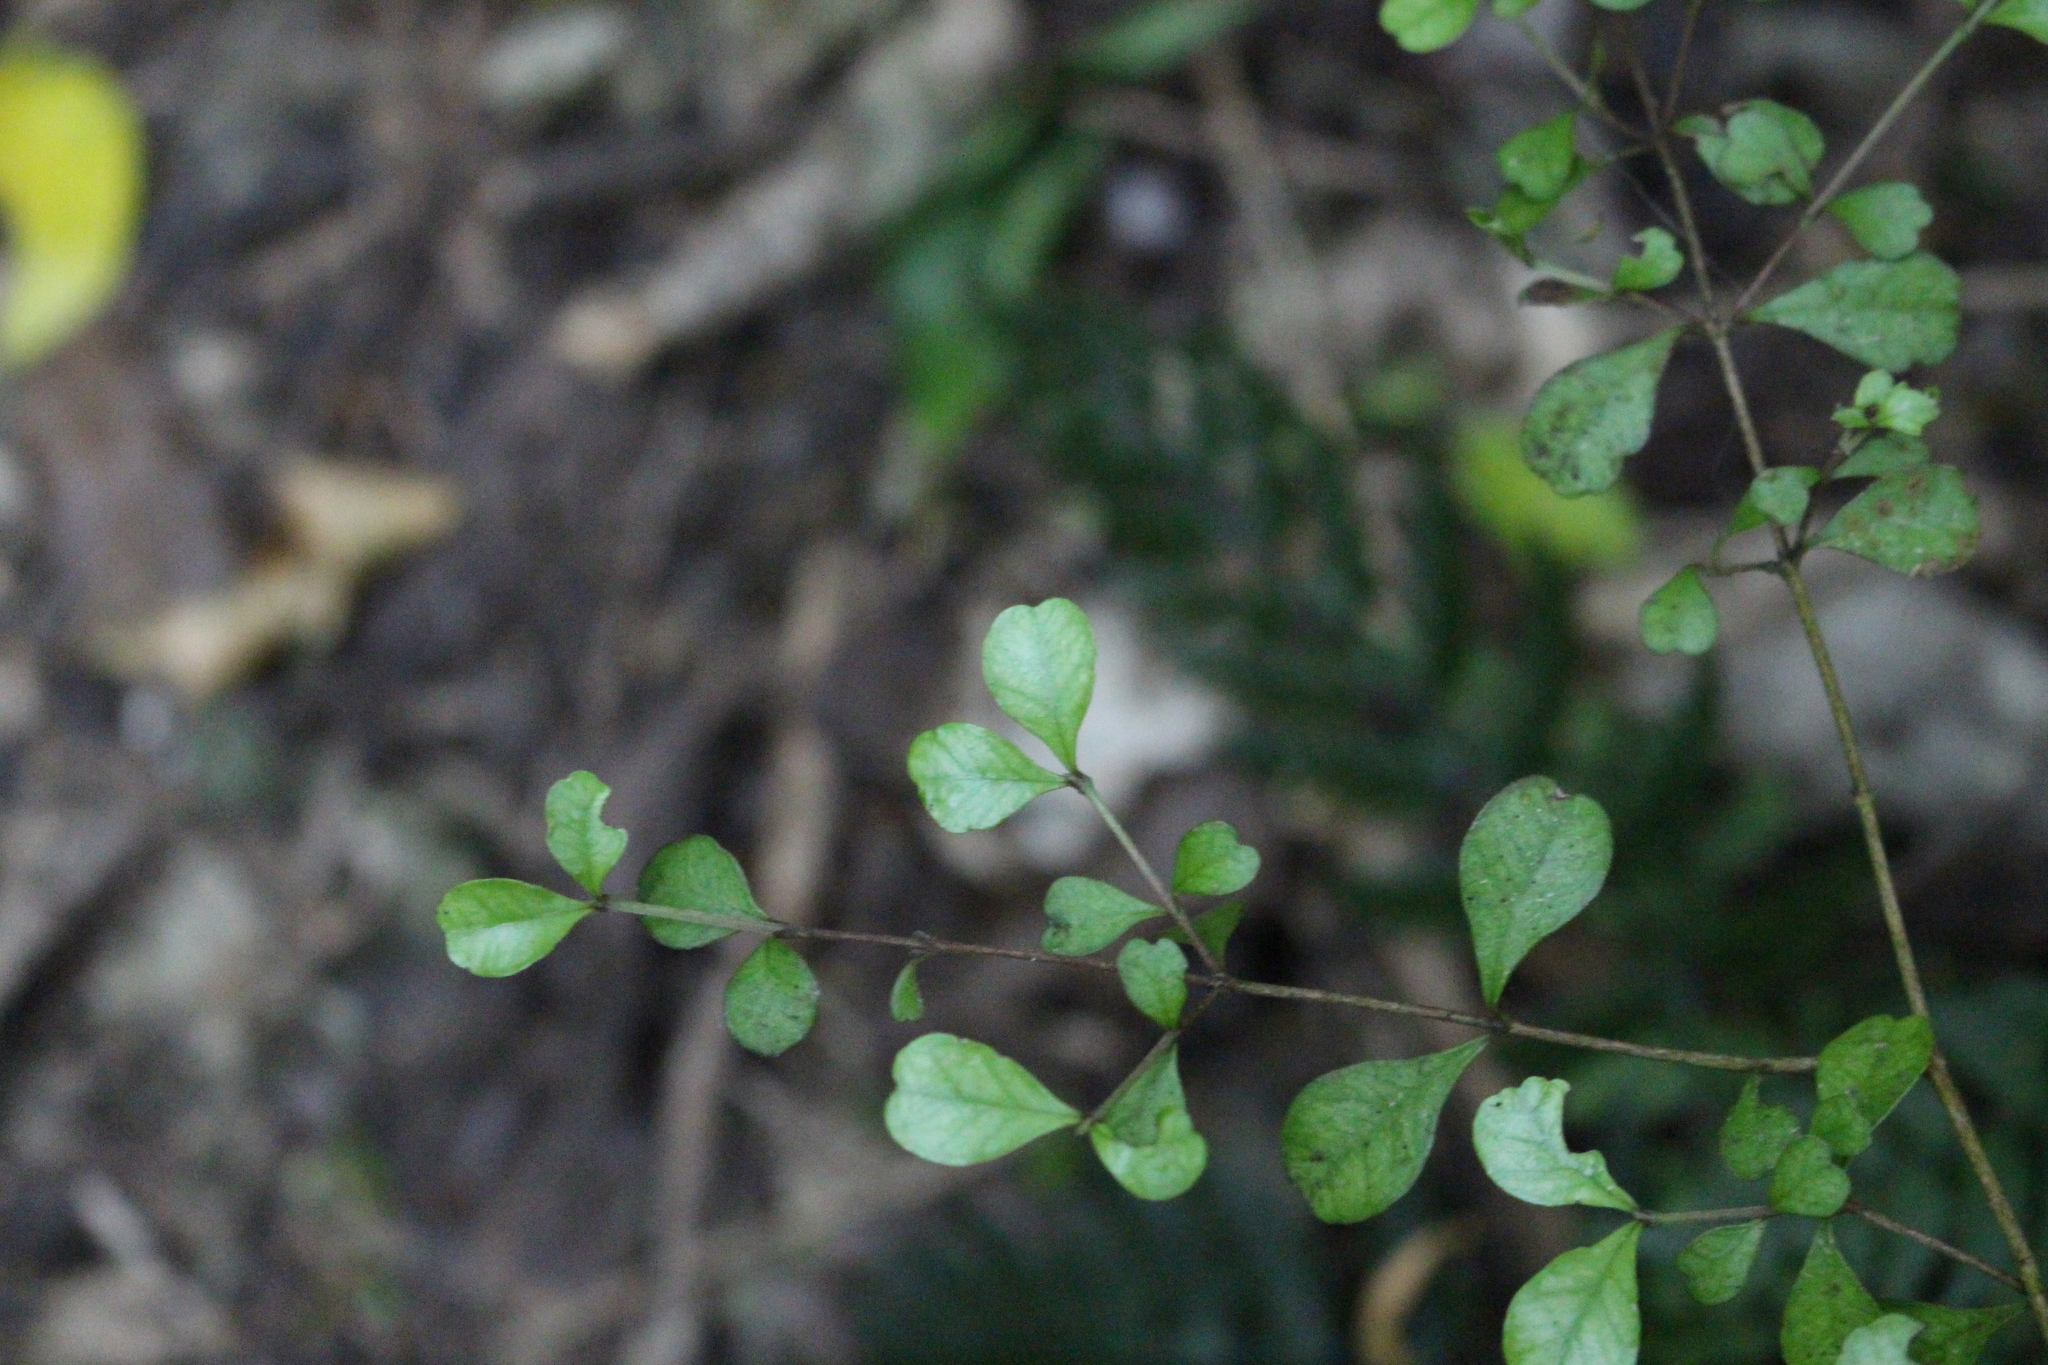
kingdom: Plantae
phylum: Tracheophyta
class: Magnoliopsida
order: Myrtales
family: Myrtaceae
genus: Lophomyrtus
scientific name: Lophomyrtus obcordata
